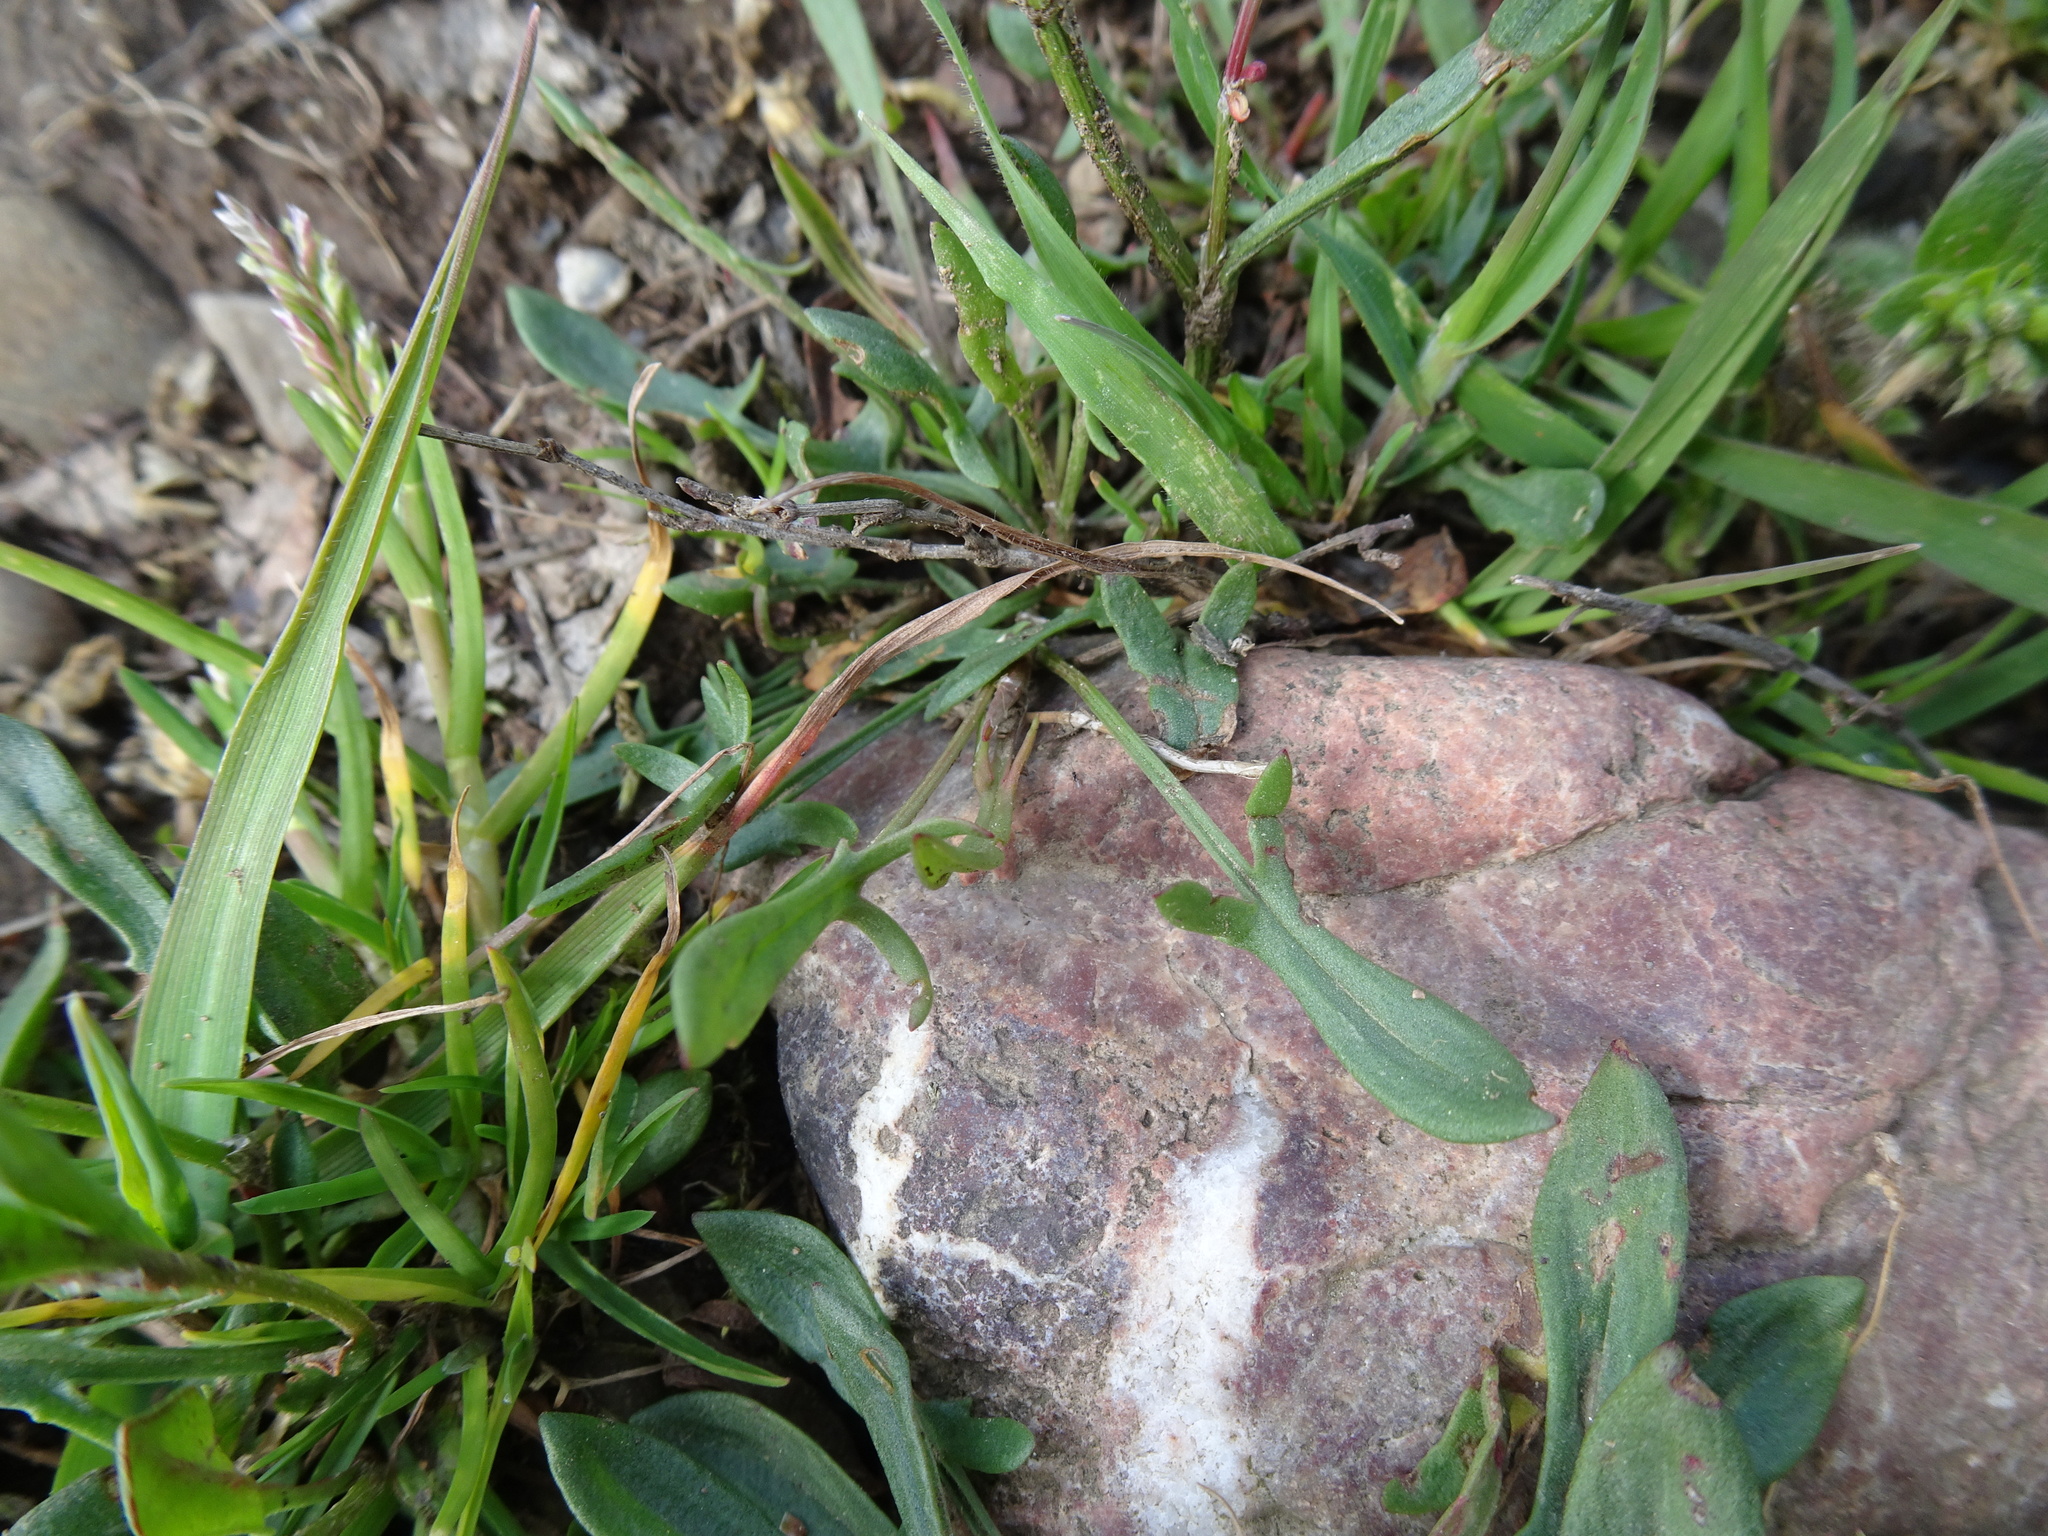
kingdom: Plantae
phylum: Tracheophyta
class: Magnoliopsida
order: Caryophyllales
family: Polygonaceae
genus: Rumex
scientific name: Rumex acetosella
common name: Common sheep sorrel
